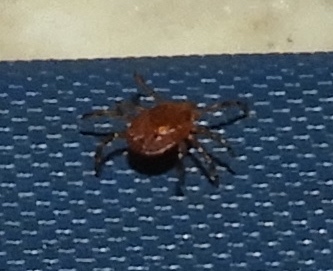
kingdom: Animalia
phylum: Arthropoda
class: Arachnida
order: Ixodida
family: Ixodidae
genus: Amblyomma
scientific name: Amblyomma
